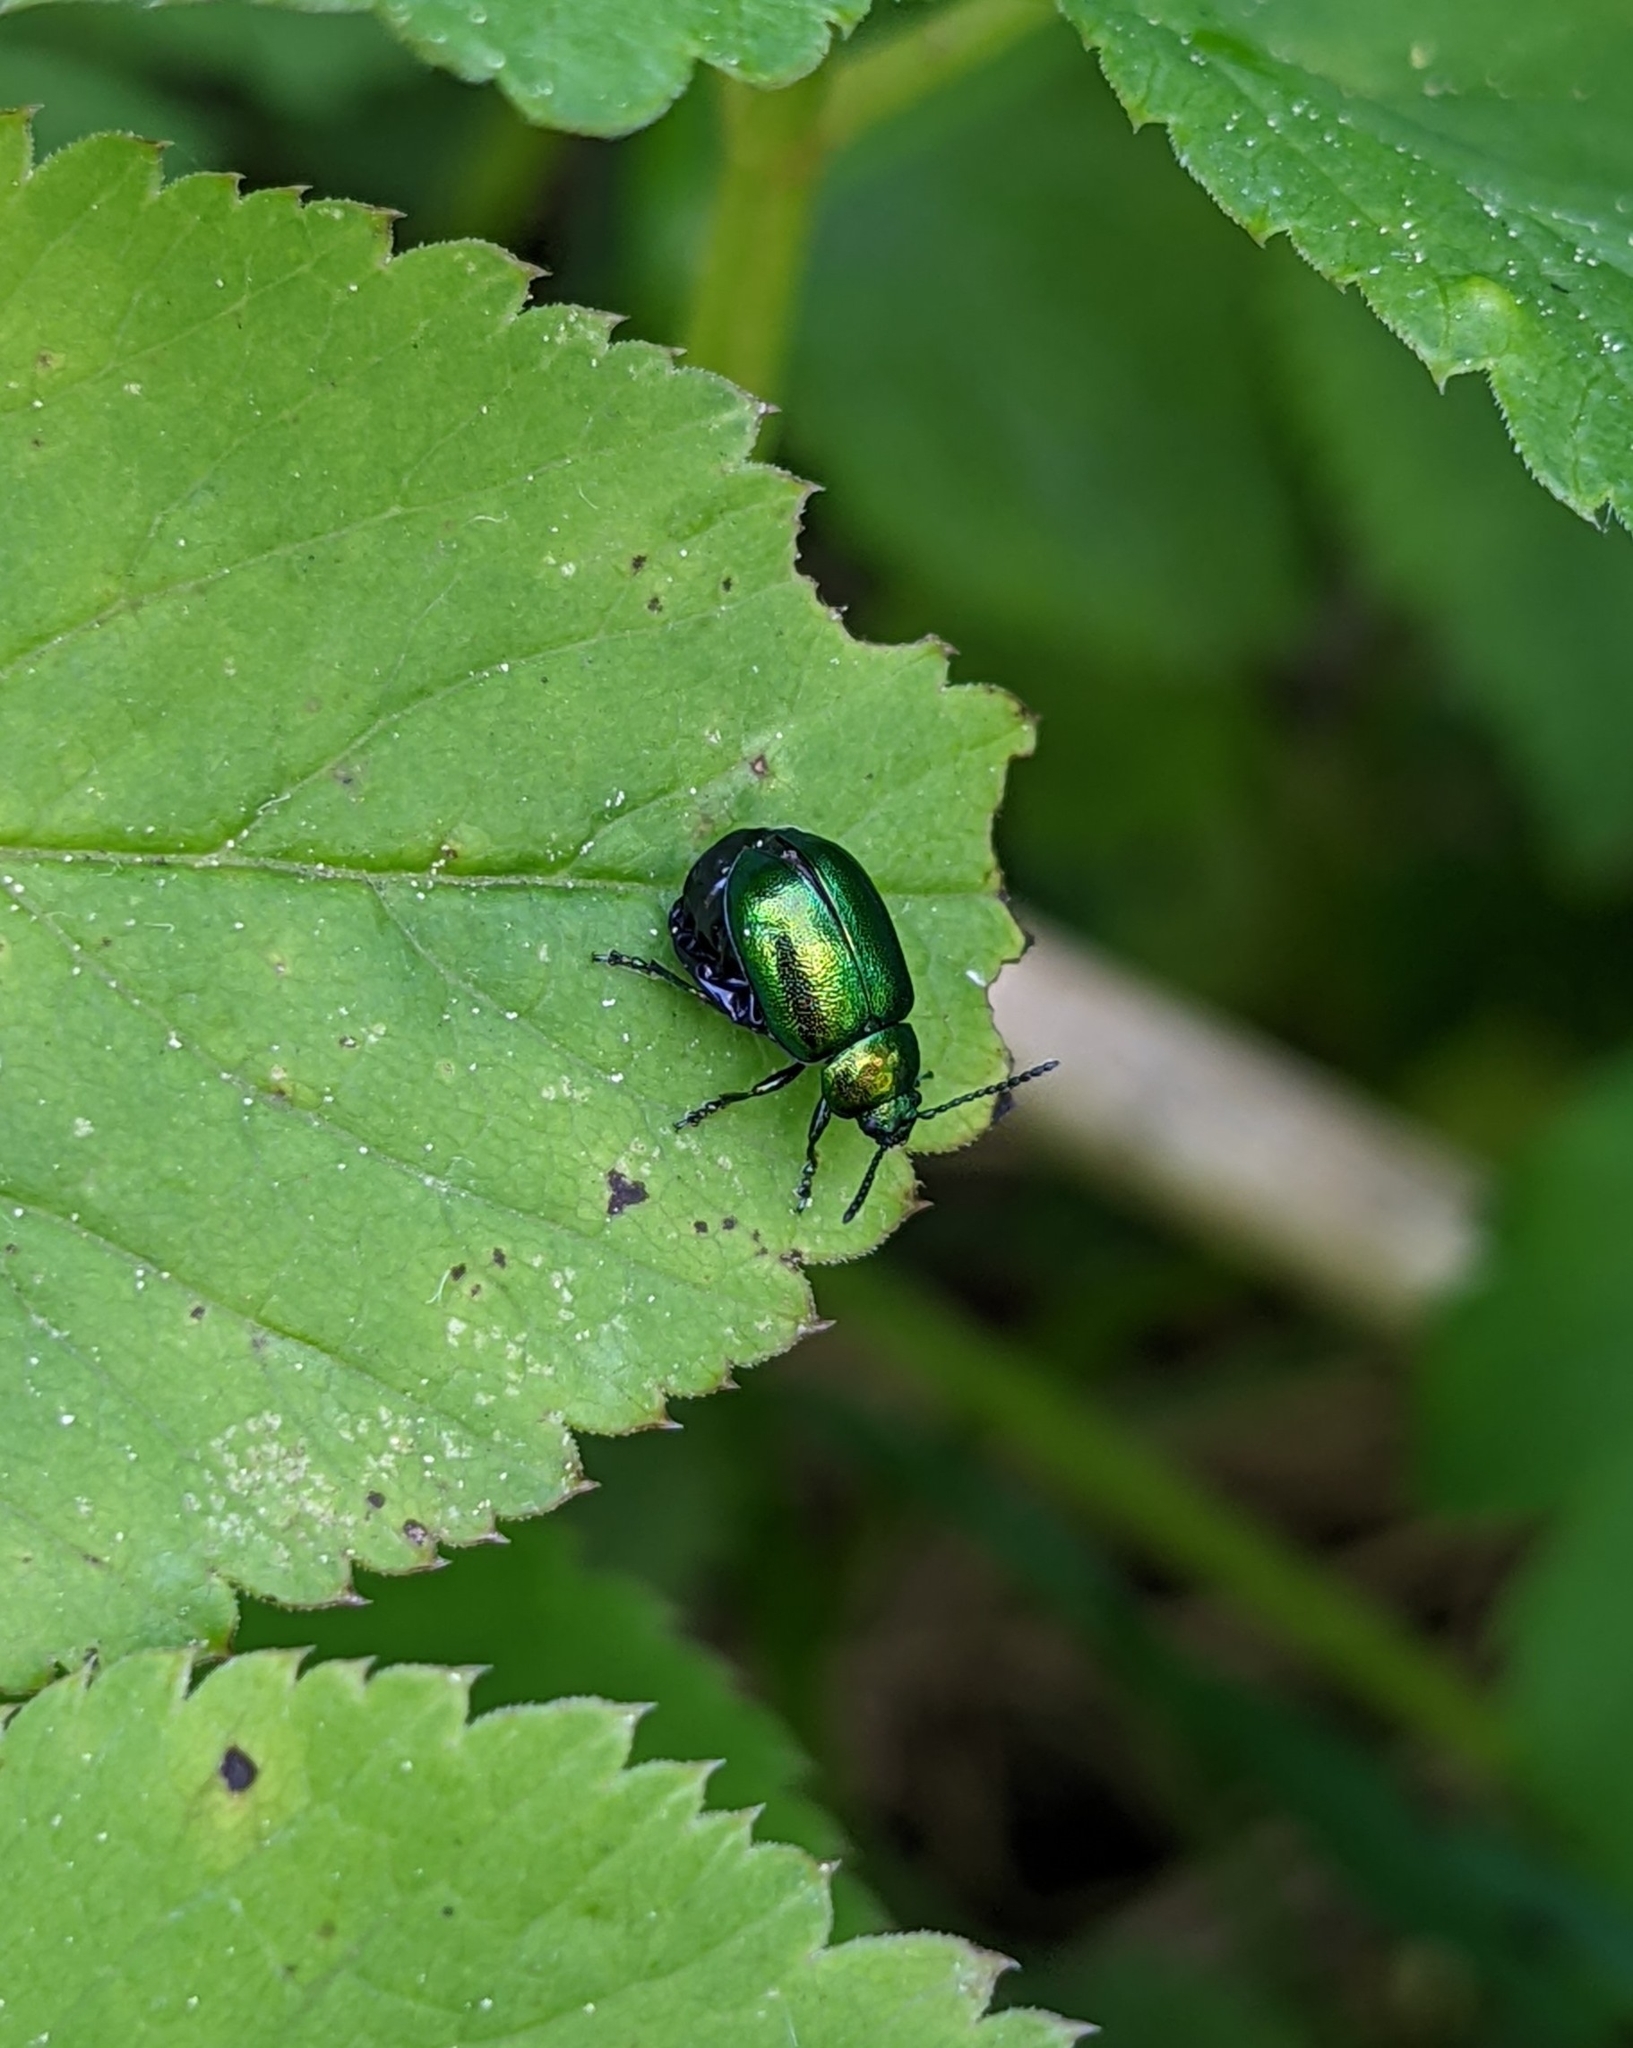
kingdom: Animalia
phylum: Arthropoda
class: Insecta
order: Coleoptera
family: Chrysomelidae
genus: Gastrophysa
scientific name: Gastrophysa viridula
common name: Green dock beetle
